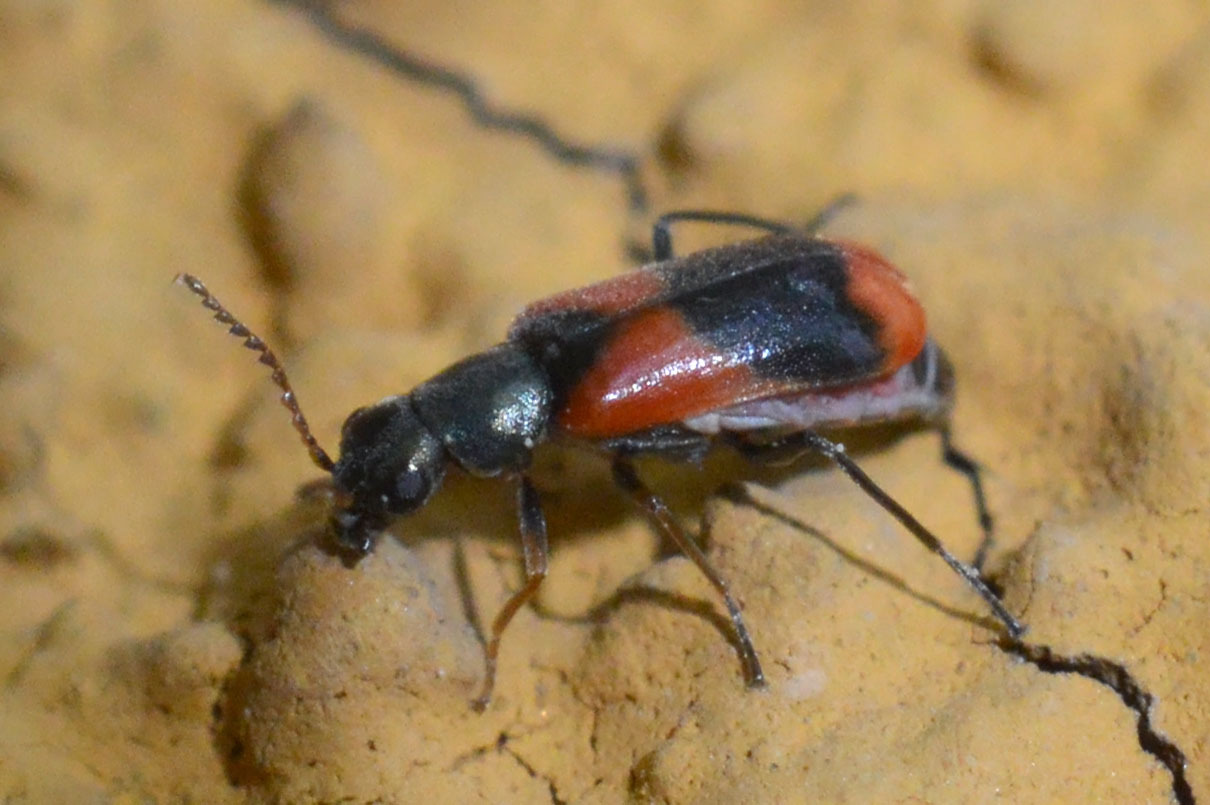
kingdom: Animalia
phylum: Arthropoda
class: Insecta
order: Coleoptera
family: Melyridae
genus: Anthocomus
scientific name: Anthocomus equestris
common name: Black-banded soft-winged flower beetle
